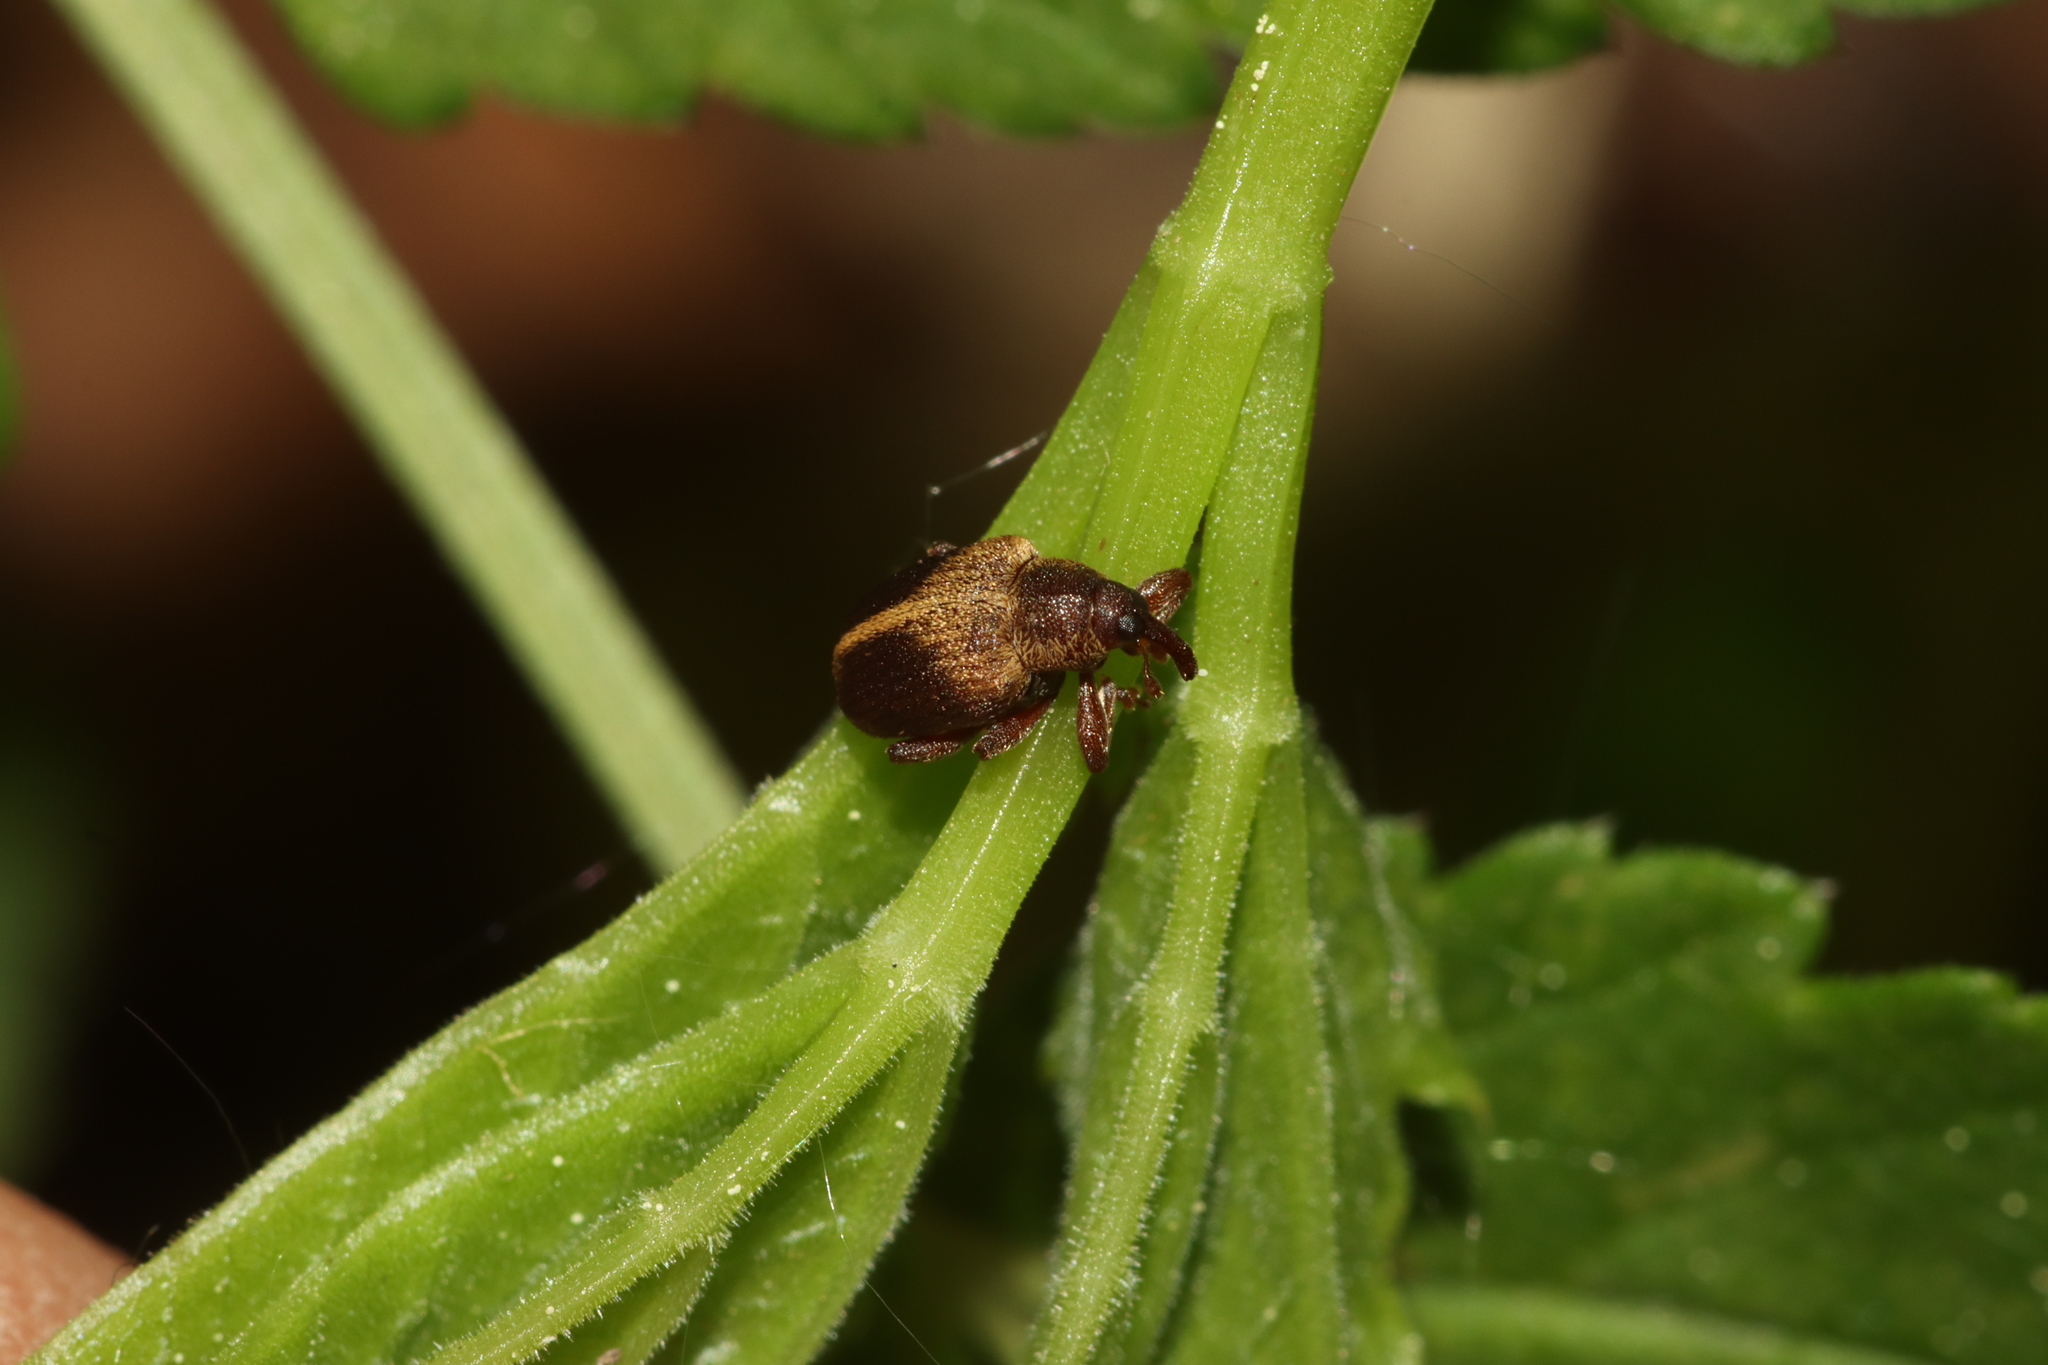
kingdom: Animalia
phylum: Arthropoda
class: Insecta
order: Coleoptera
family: Curculionidae
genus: Lignyodes
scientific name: Lignyodes enucleator
